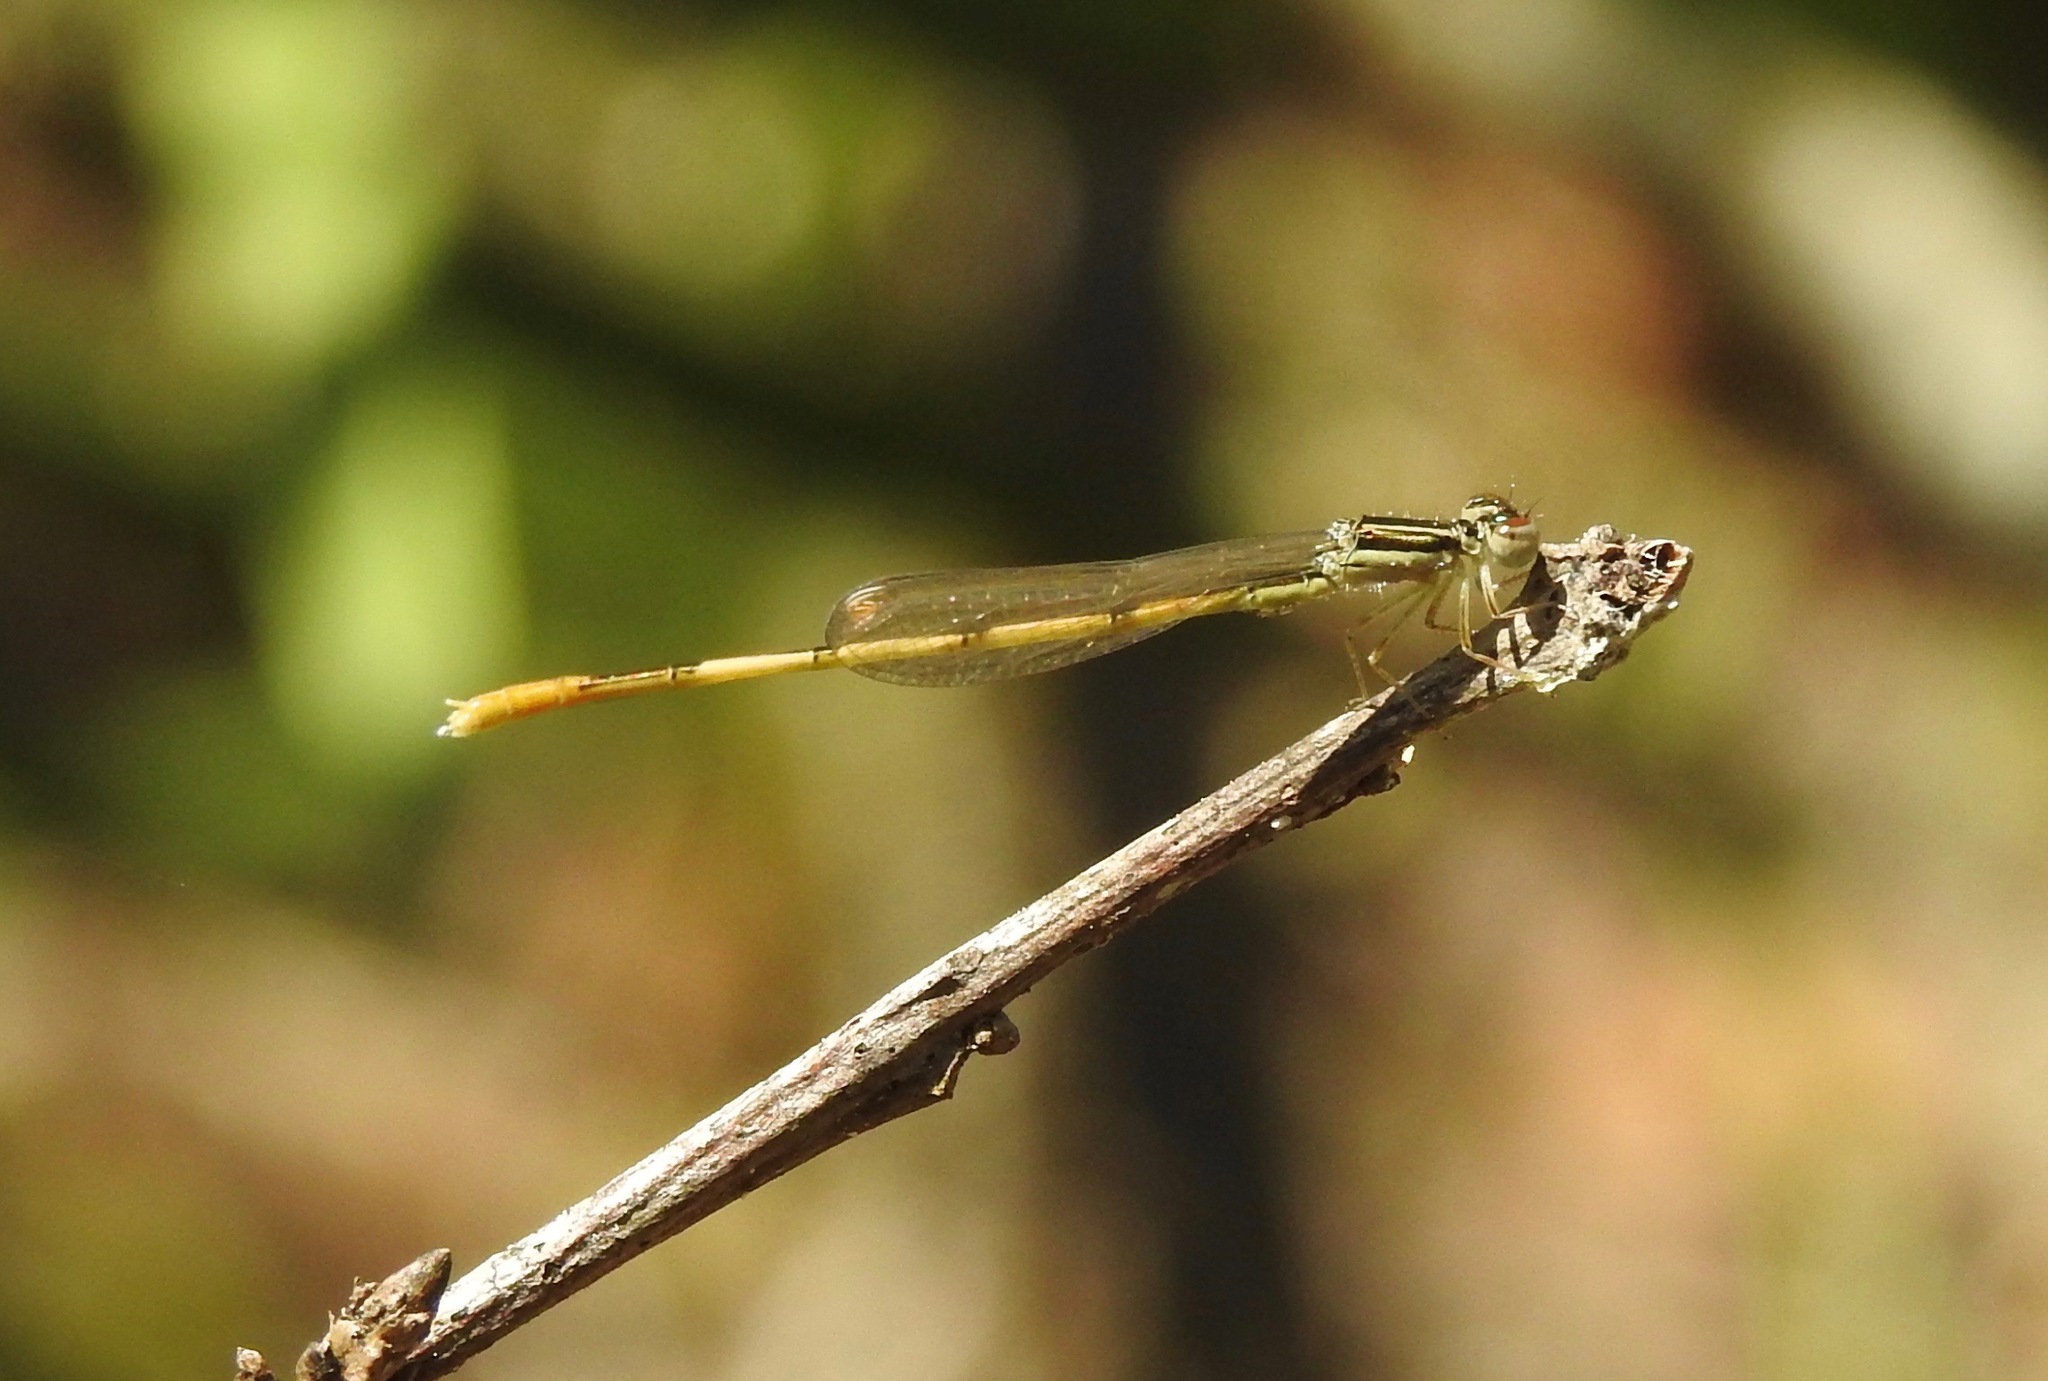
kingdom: Animalia
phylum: Arthropoda
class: Insecta
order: Odonata
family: Coenagrionidae
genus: Ischnura
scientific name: Ischnura hastata
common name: Citrine forktail
